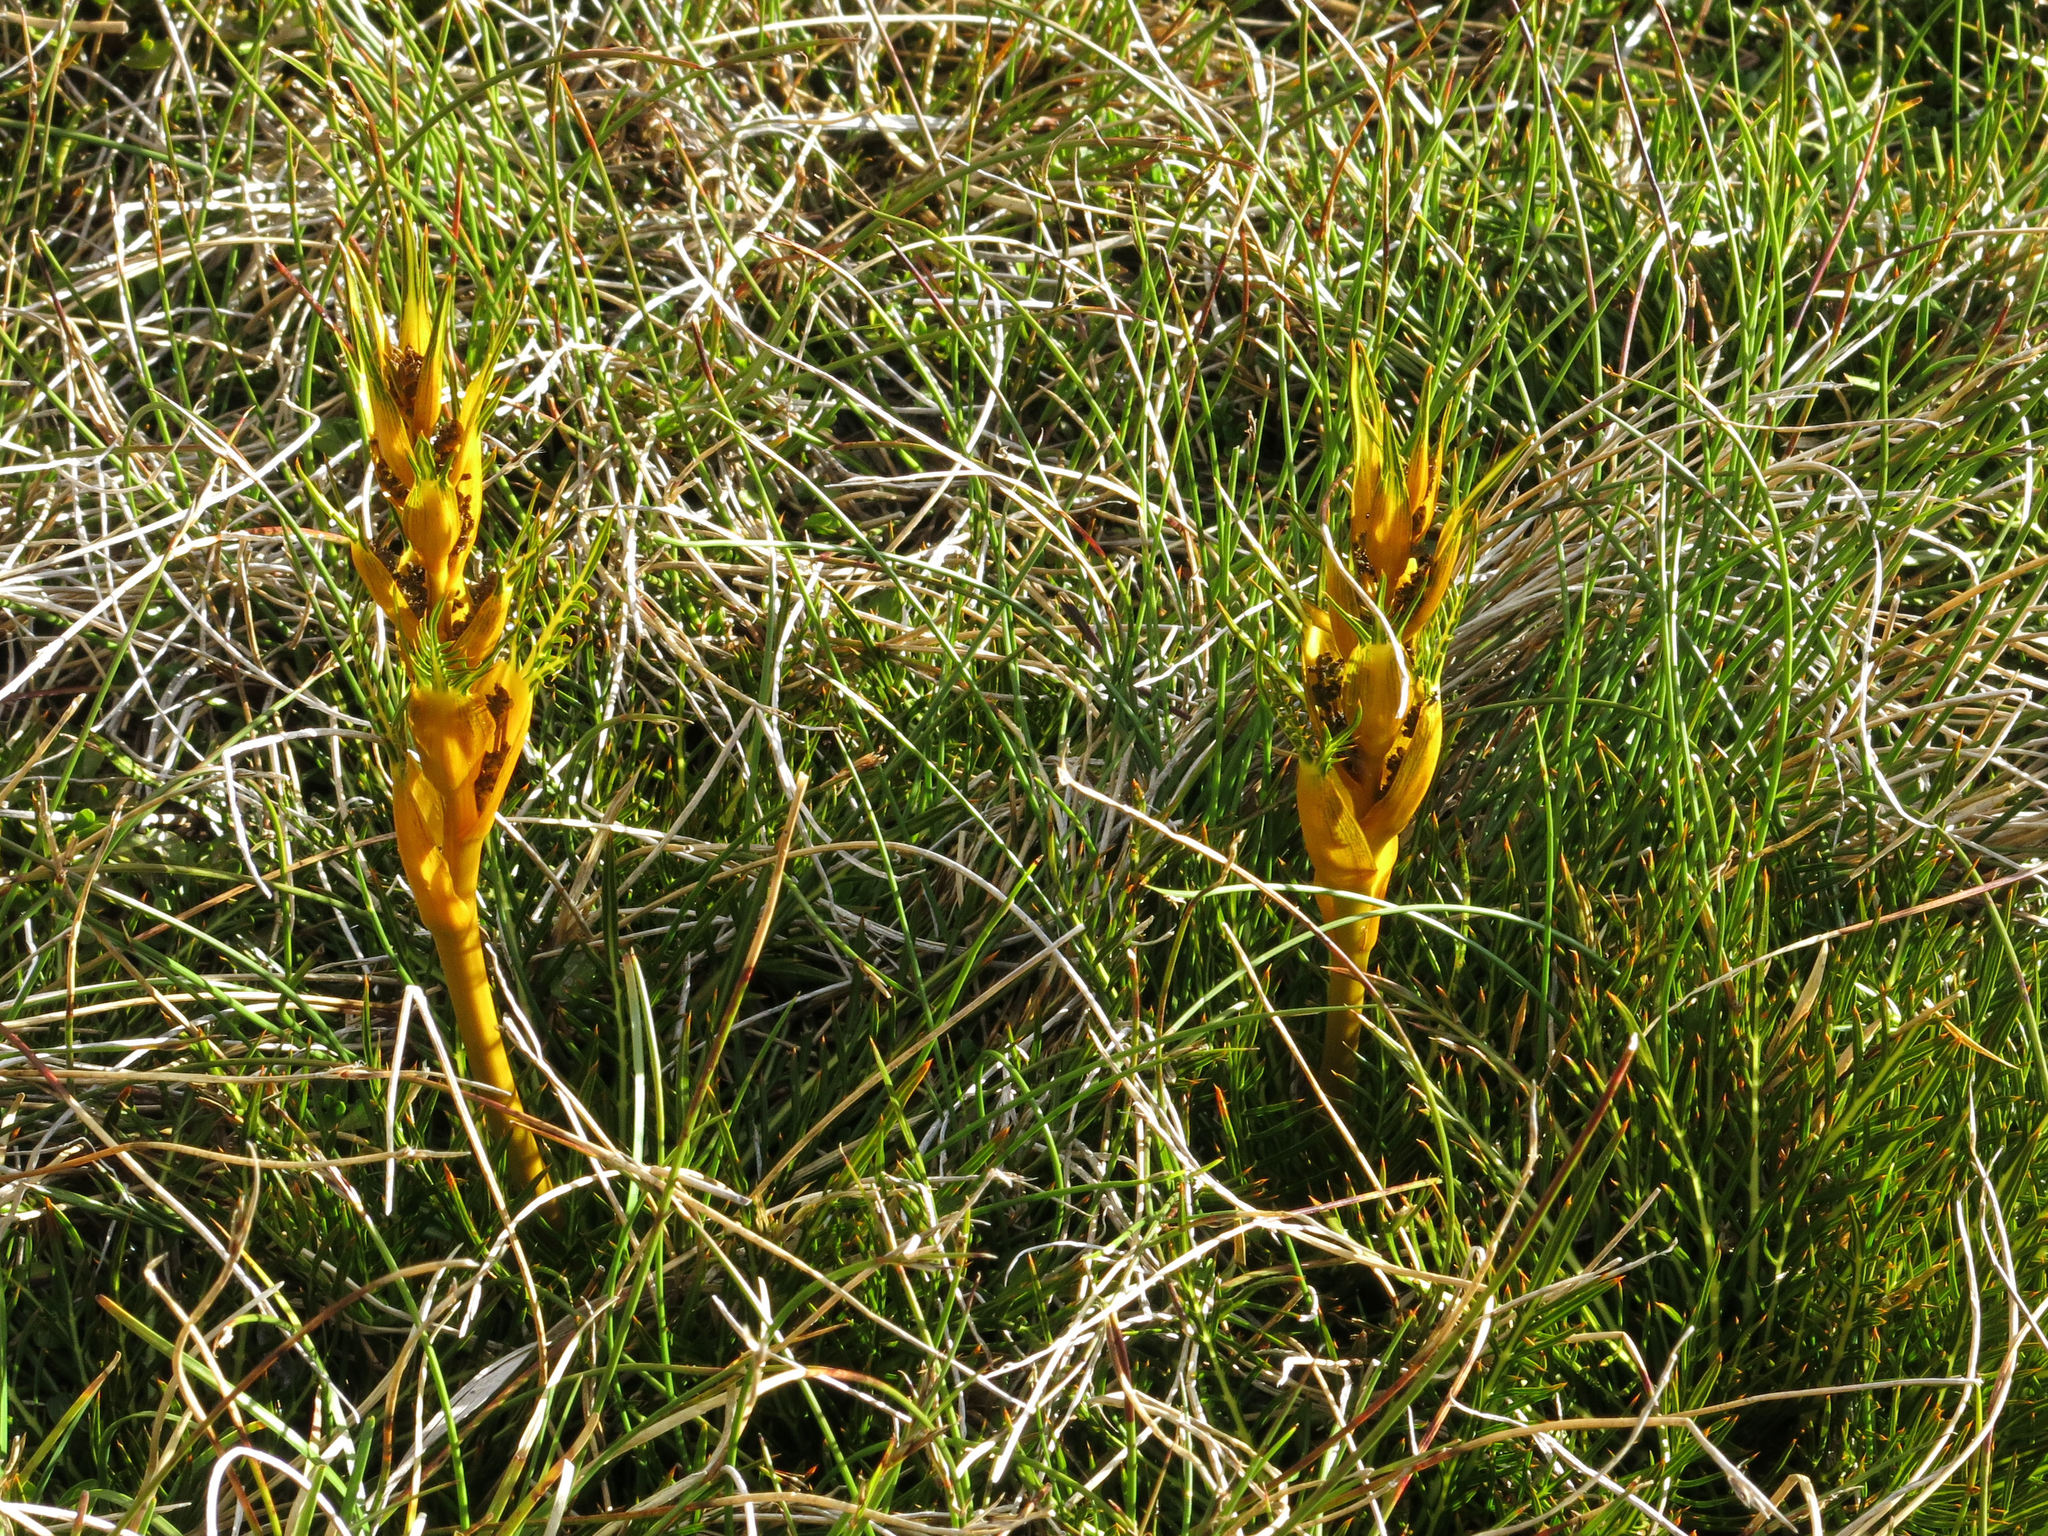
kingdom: Plantae
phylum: Tracheophyta
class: Magnoliopsida
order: Apiales
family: Apiaceae
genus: Aciphylla
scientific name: Aciphylla pinnatifida
